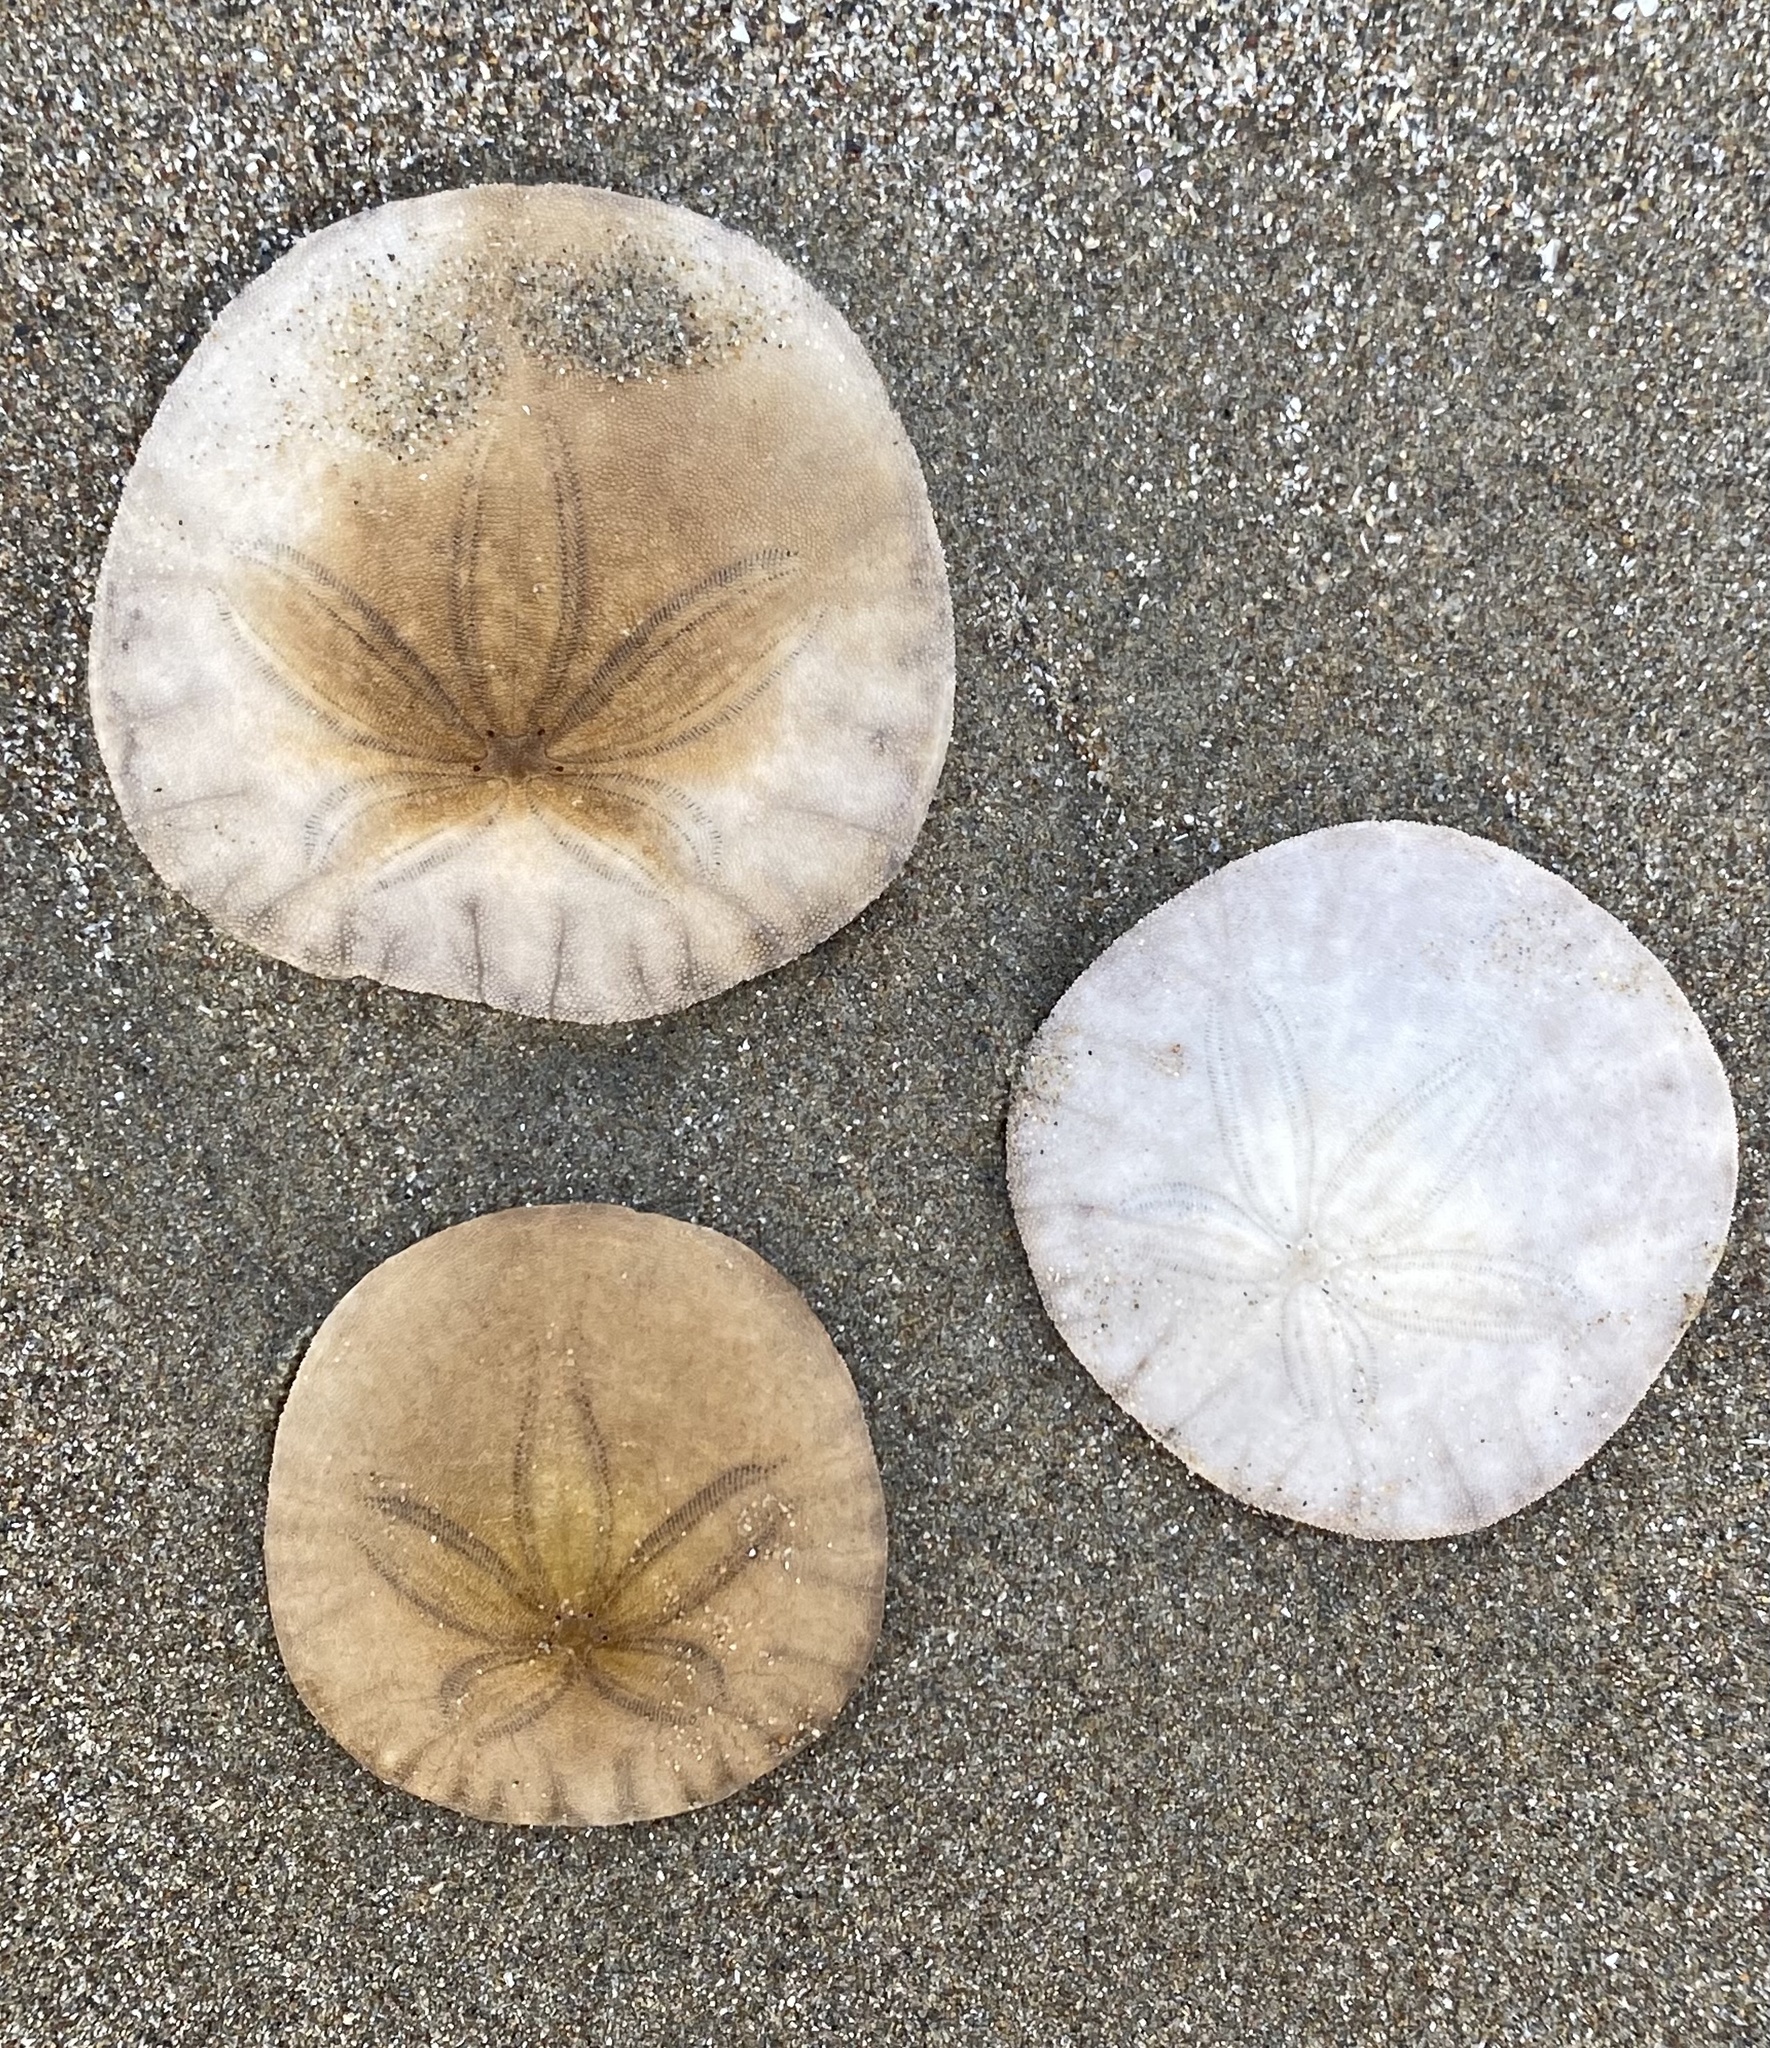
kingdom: Animalia
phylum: Echinodermata
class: Echinoidea
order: Echinolampadacea
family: Dendrasteridae
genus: Dendraster
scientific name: Dendraster excentricus
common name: Eccentric sand dollar sea urchin
